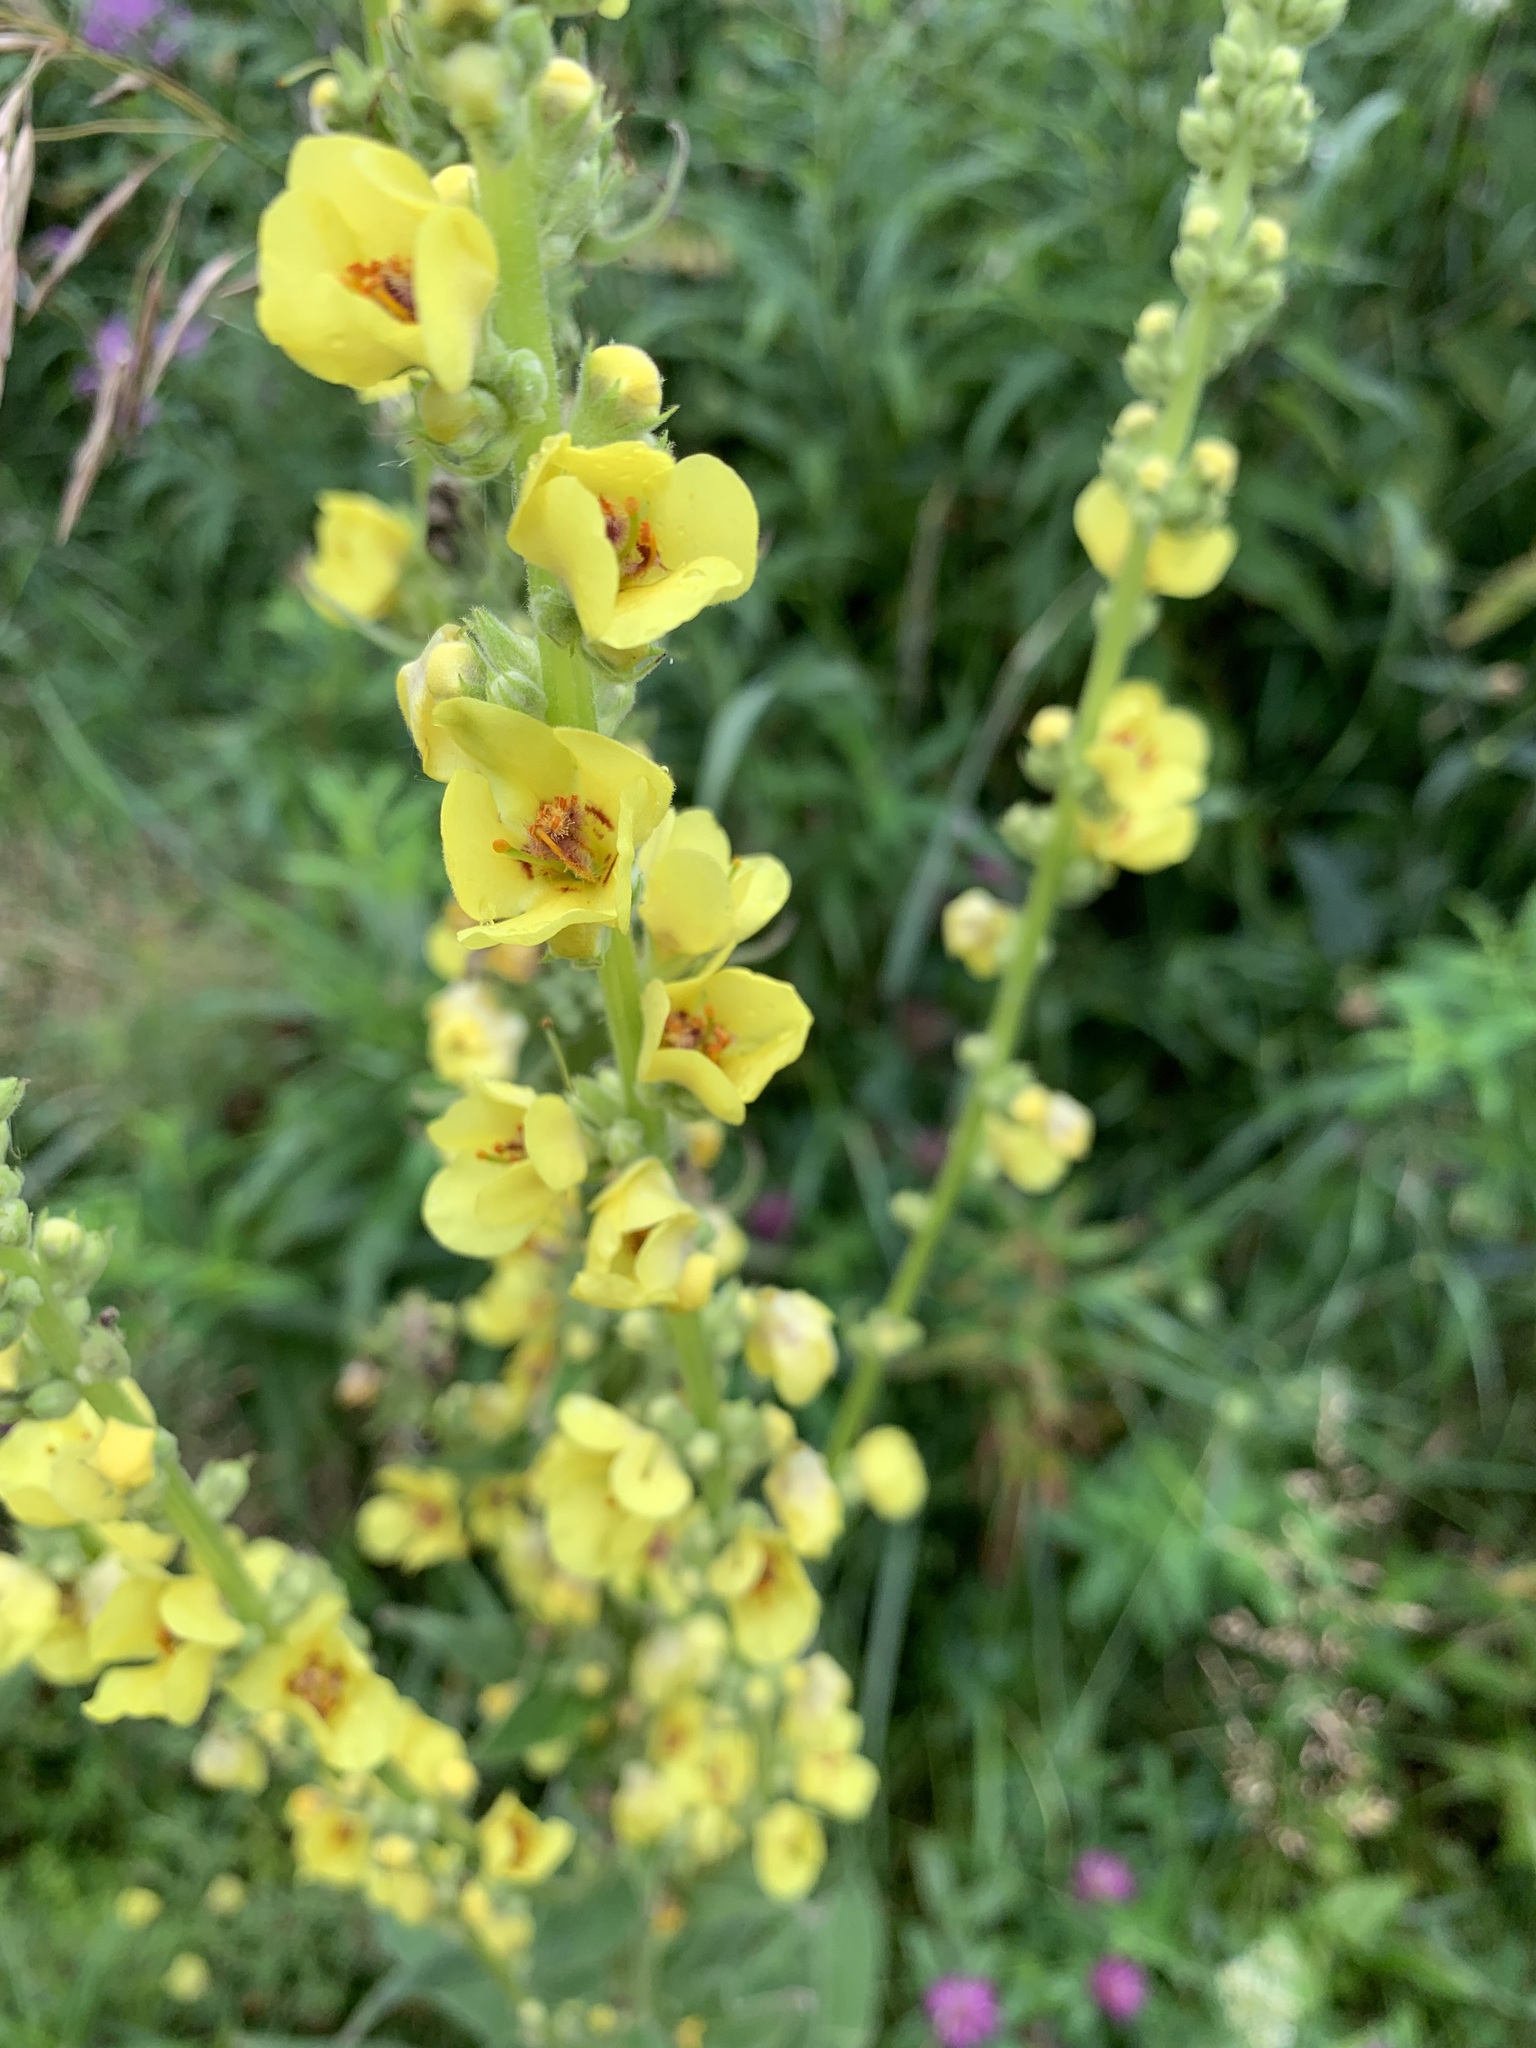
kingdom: Plantae
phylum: Tracheophyta
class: Magnoliopsida
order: Lamiales
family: Scrophulariaceae
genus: Verbascum
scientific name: Verbascum semialbum
